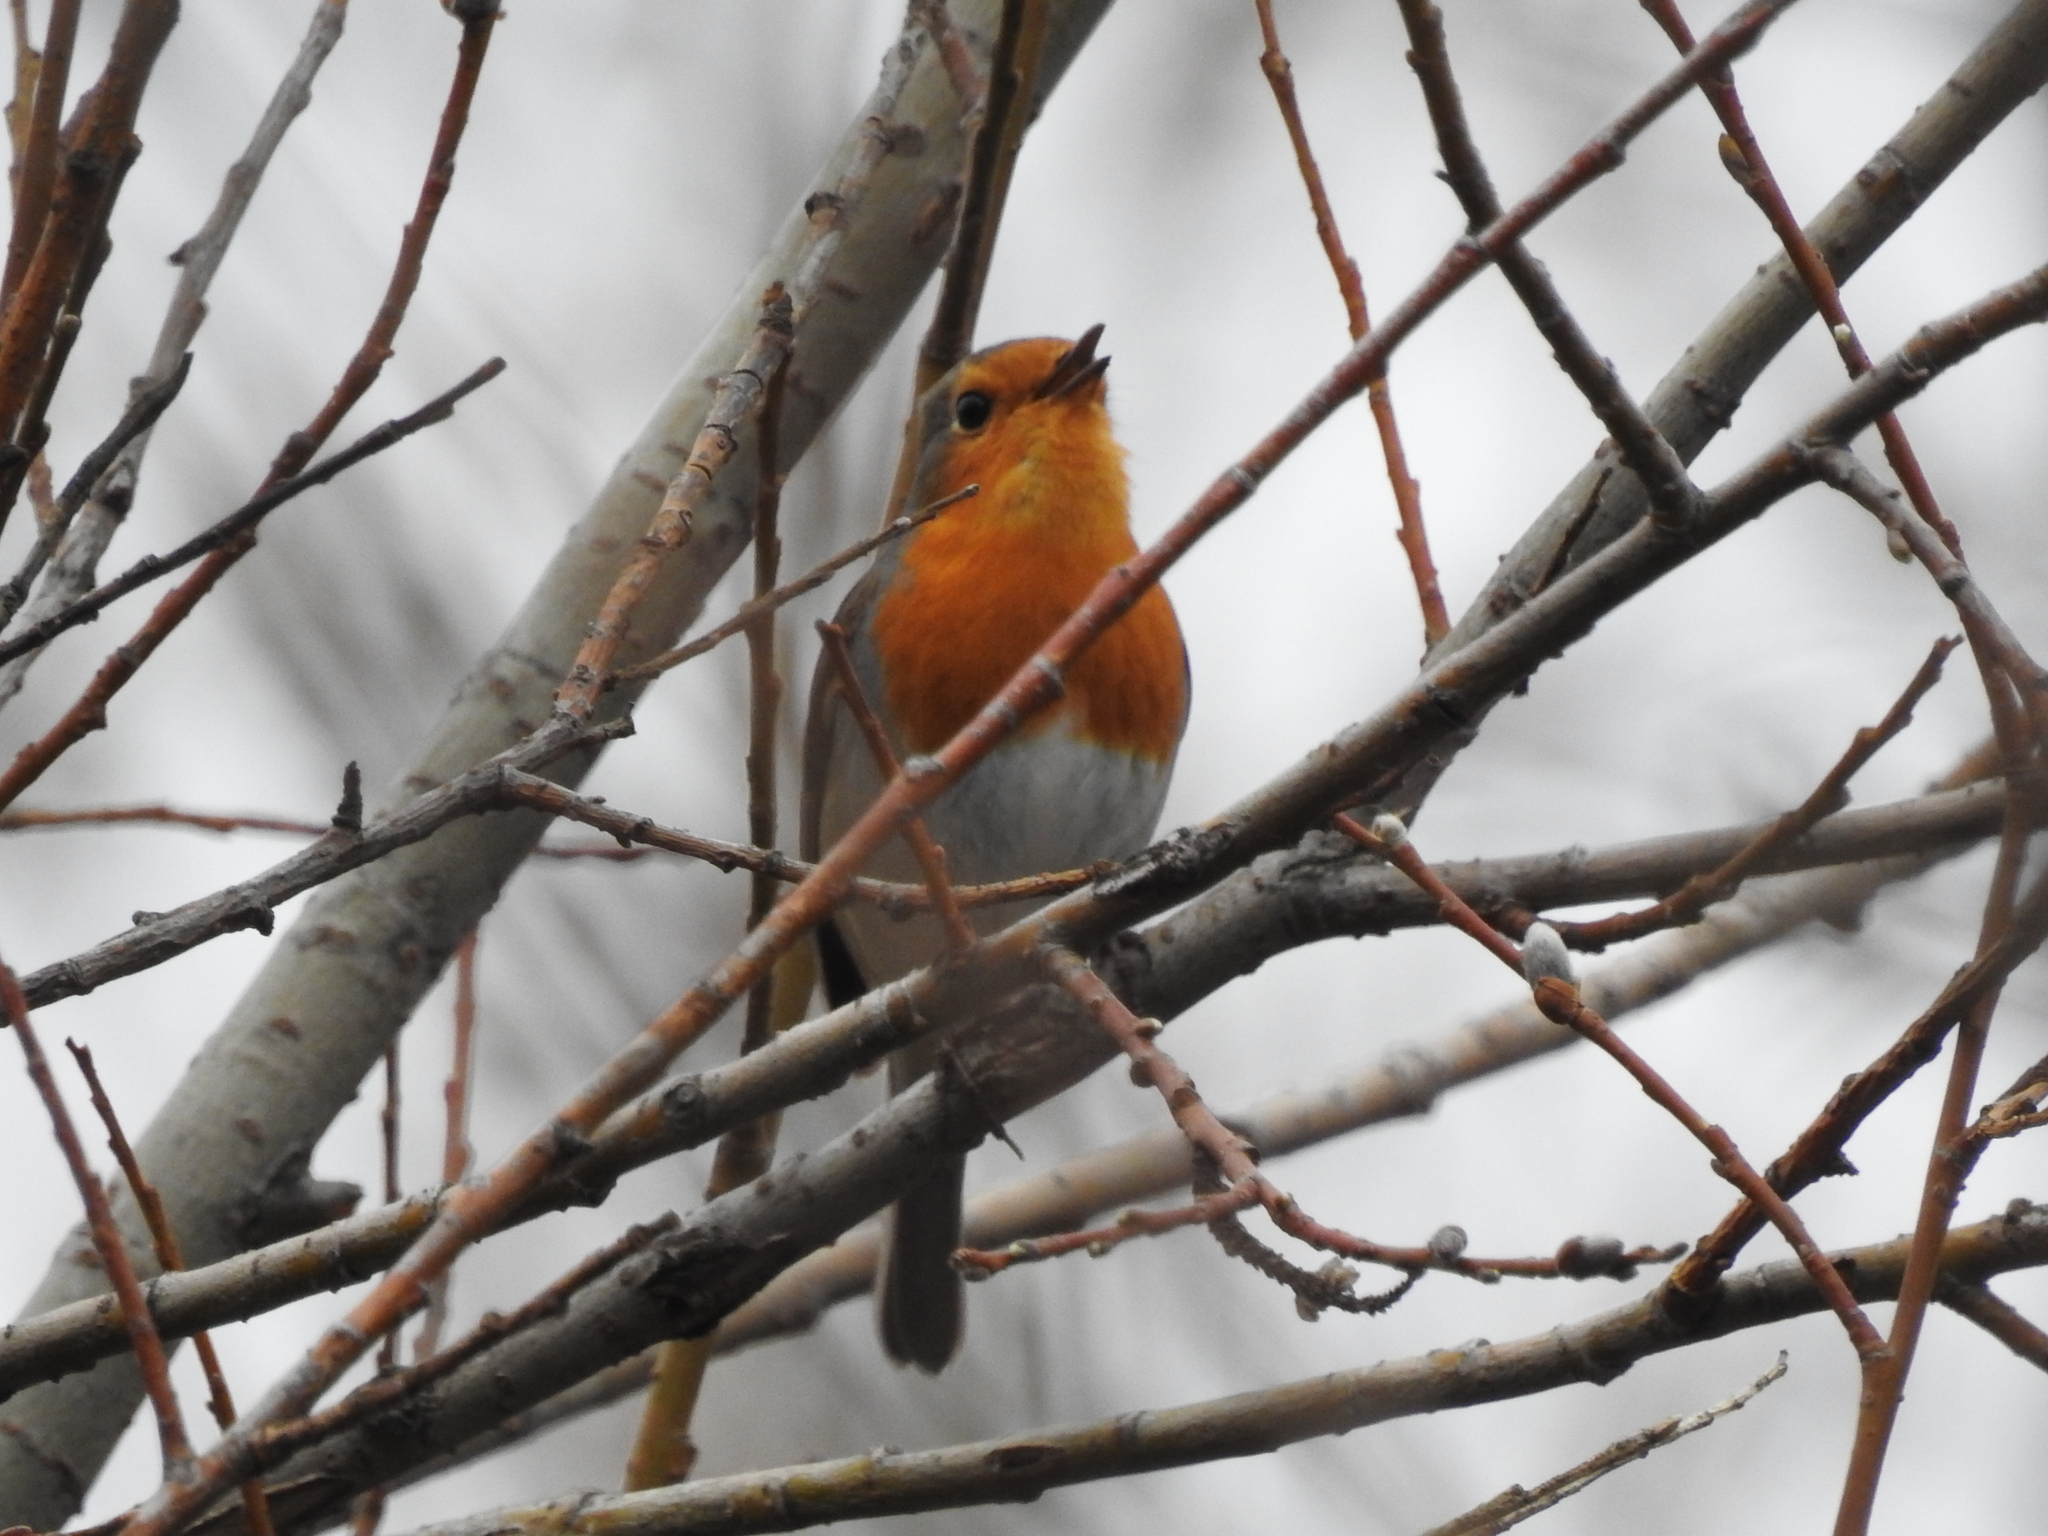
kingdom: Animalia
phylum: Chordata
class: Aves
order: Passeriformes
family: Muscicapidae
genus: Erithacus
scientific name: Erithacus rubecula
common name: European robin
